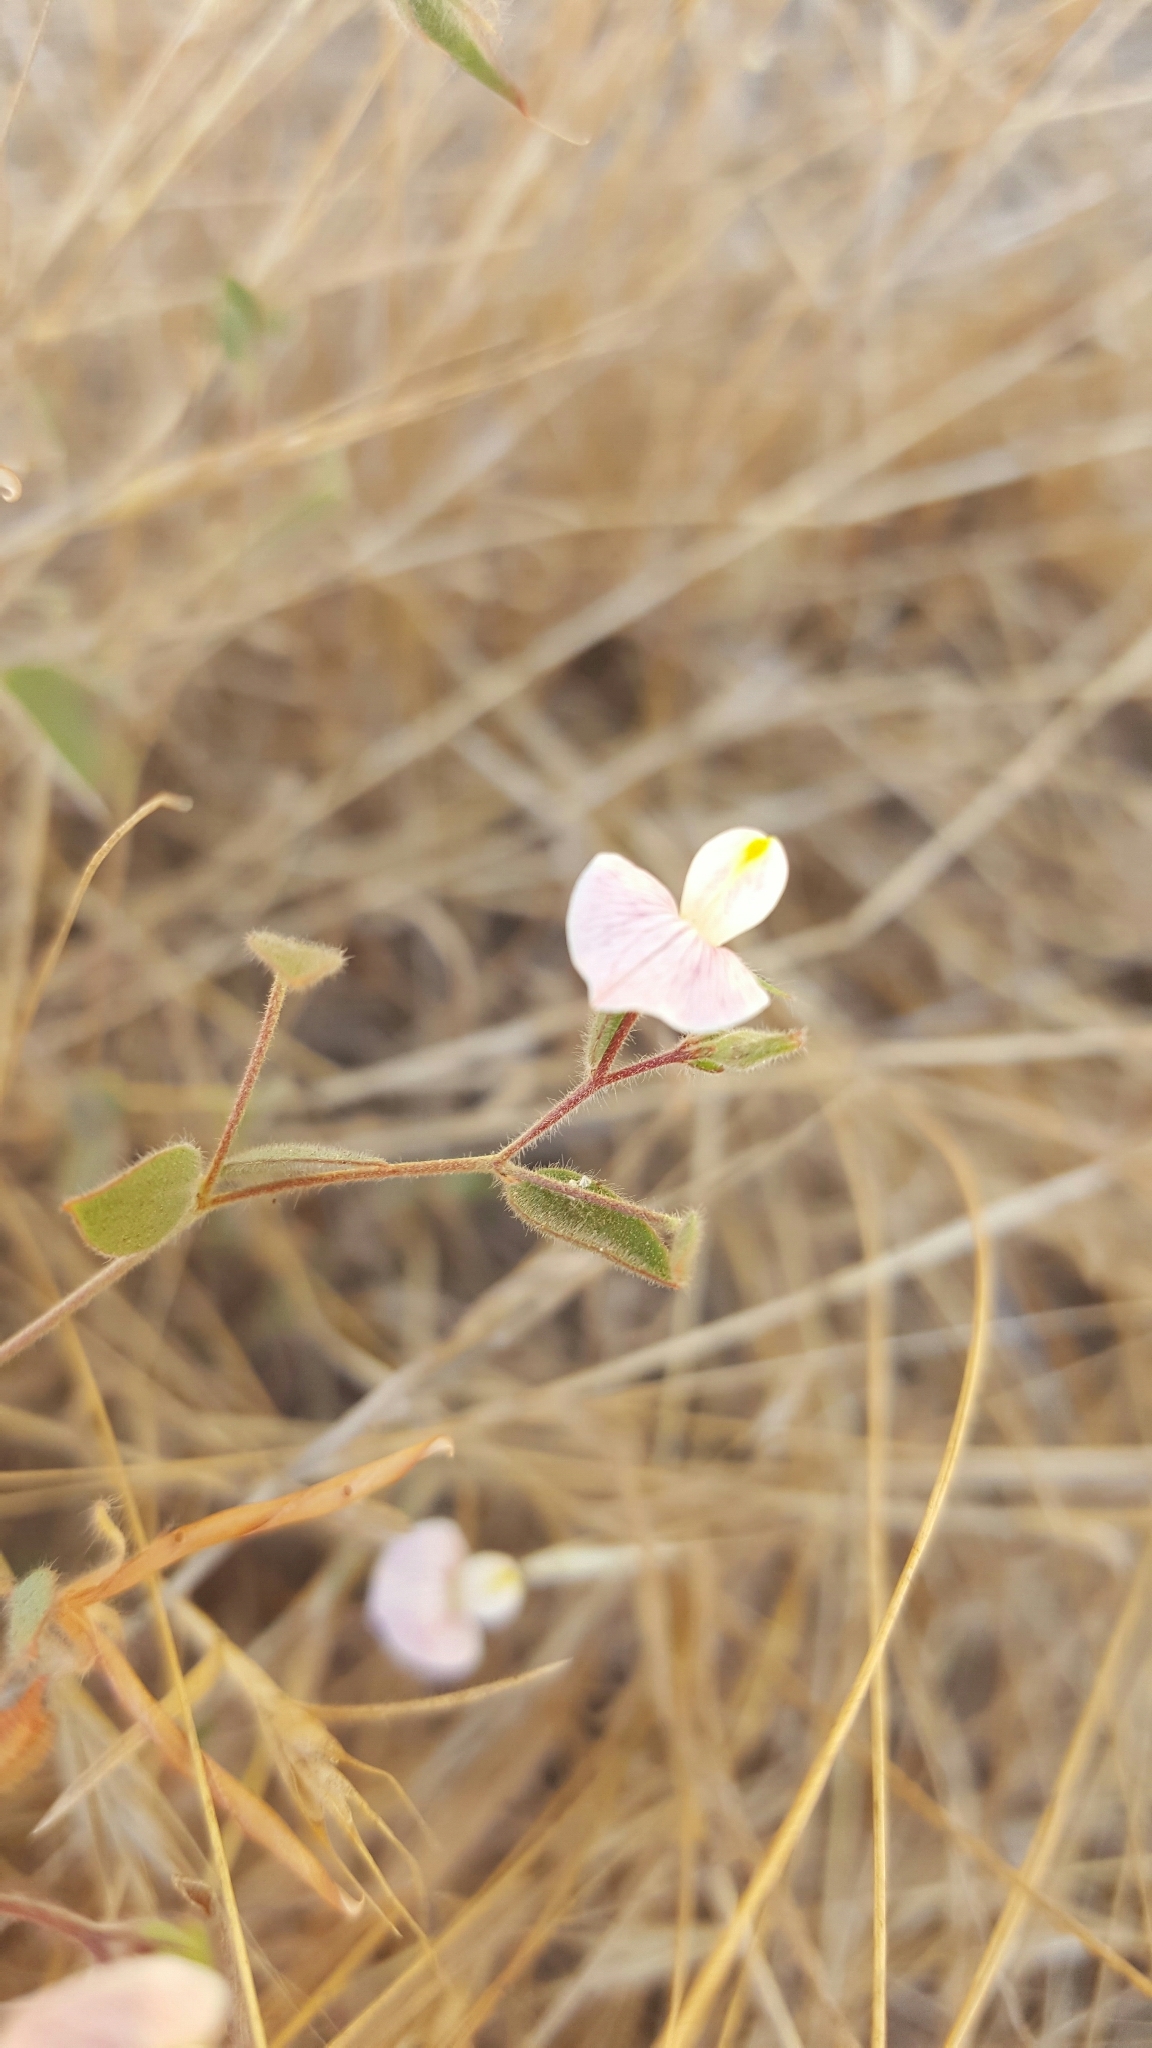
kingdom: Plantae
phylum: Tracheophyta
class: Magnoliopsida
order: Fabales
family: Fabaceae
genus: Acmispon
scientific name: Acmispon americanus
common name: American bird's-foot trefoil
